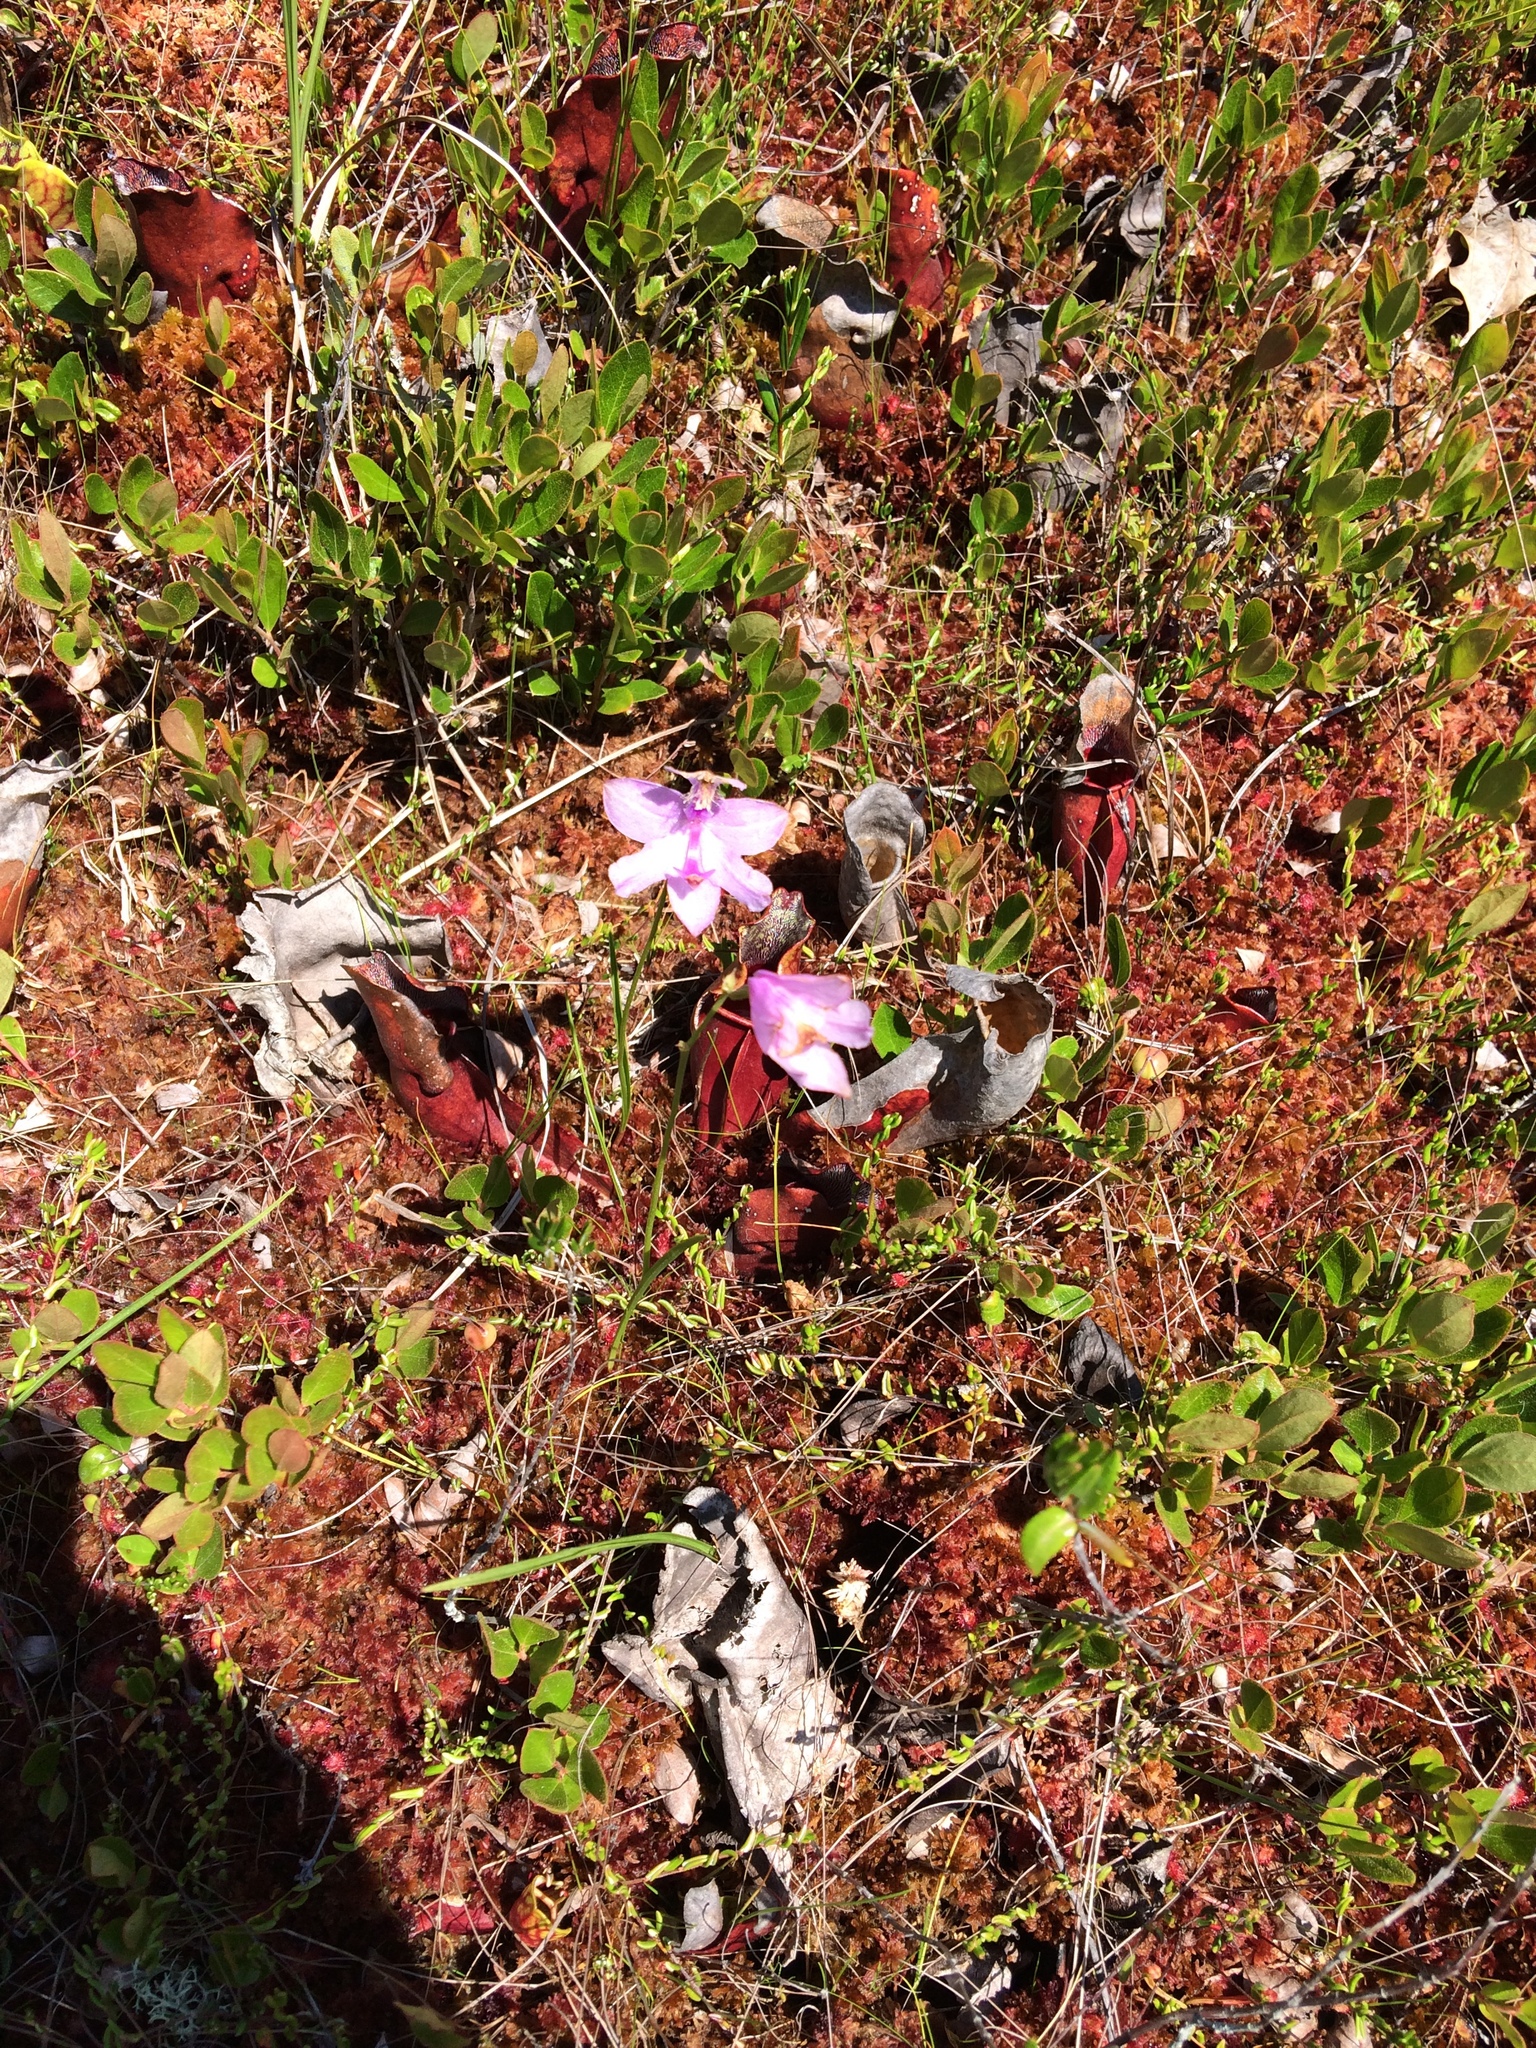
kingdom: Plantae
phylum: Tracheophyta
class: Liliopsida
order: Asparagales
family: Orchidaceae
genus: Calopogon
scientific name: Calopogon tuberosus
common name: Grass-pink
